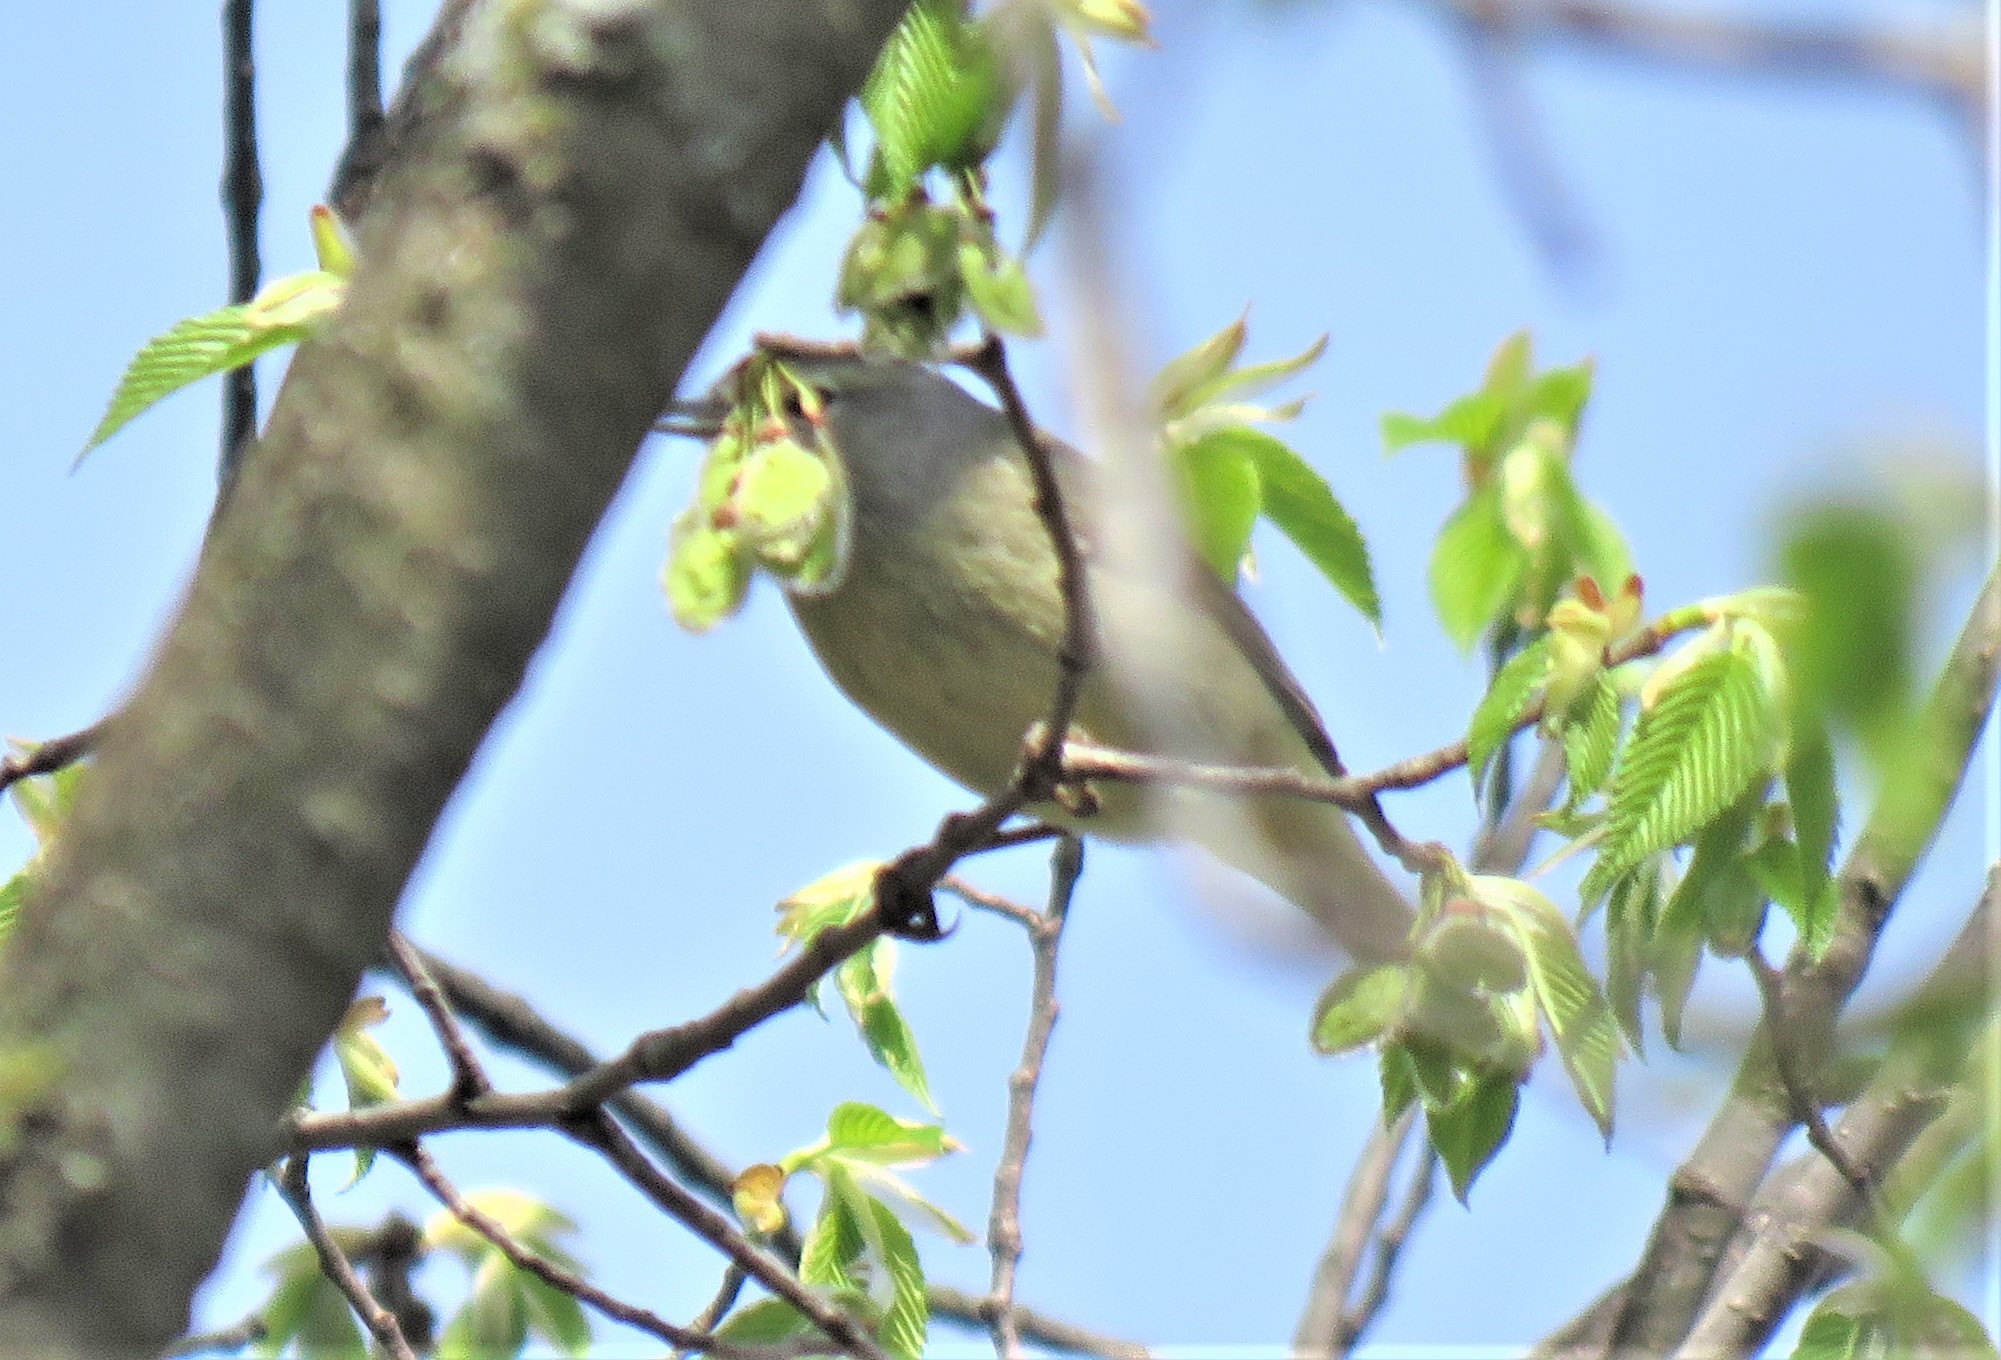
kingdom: Animalia
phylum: Chordata
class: Aves
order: Passeriformes
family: Parulidae
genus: Leiothlypis
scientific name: Leiothlypis celata
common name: Orange-crowned warbler
